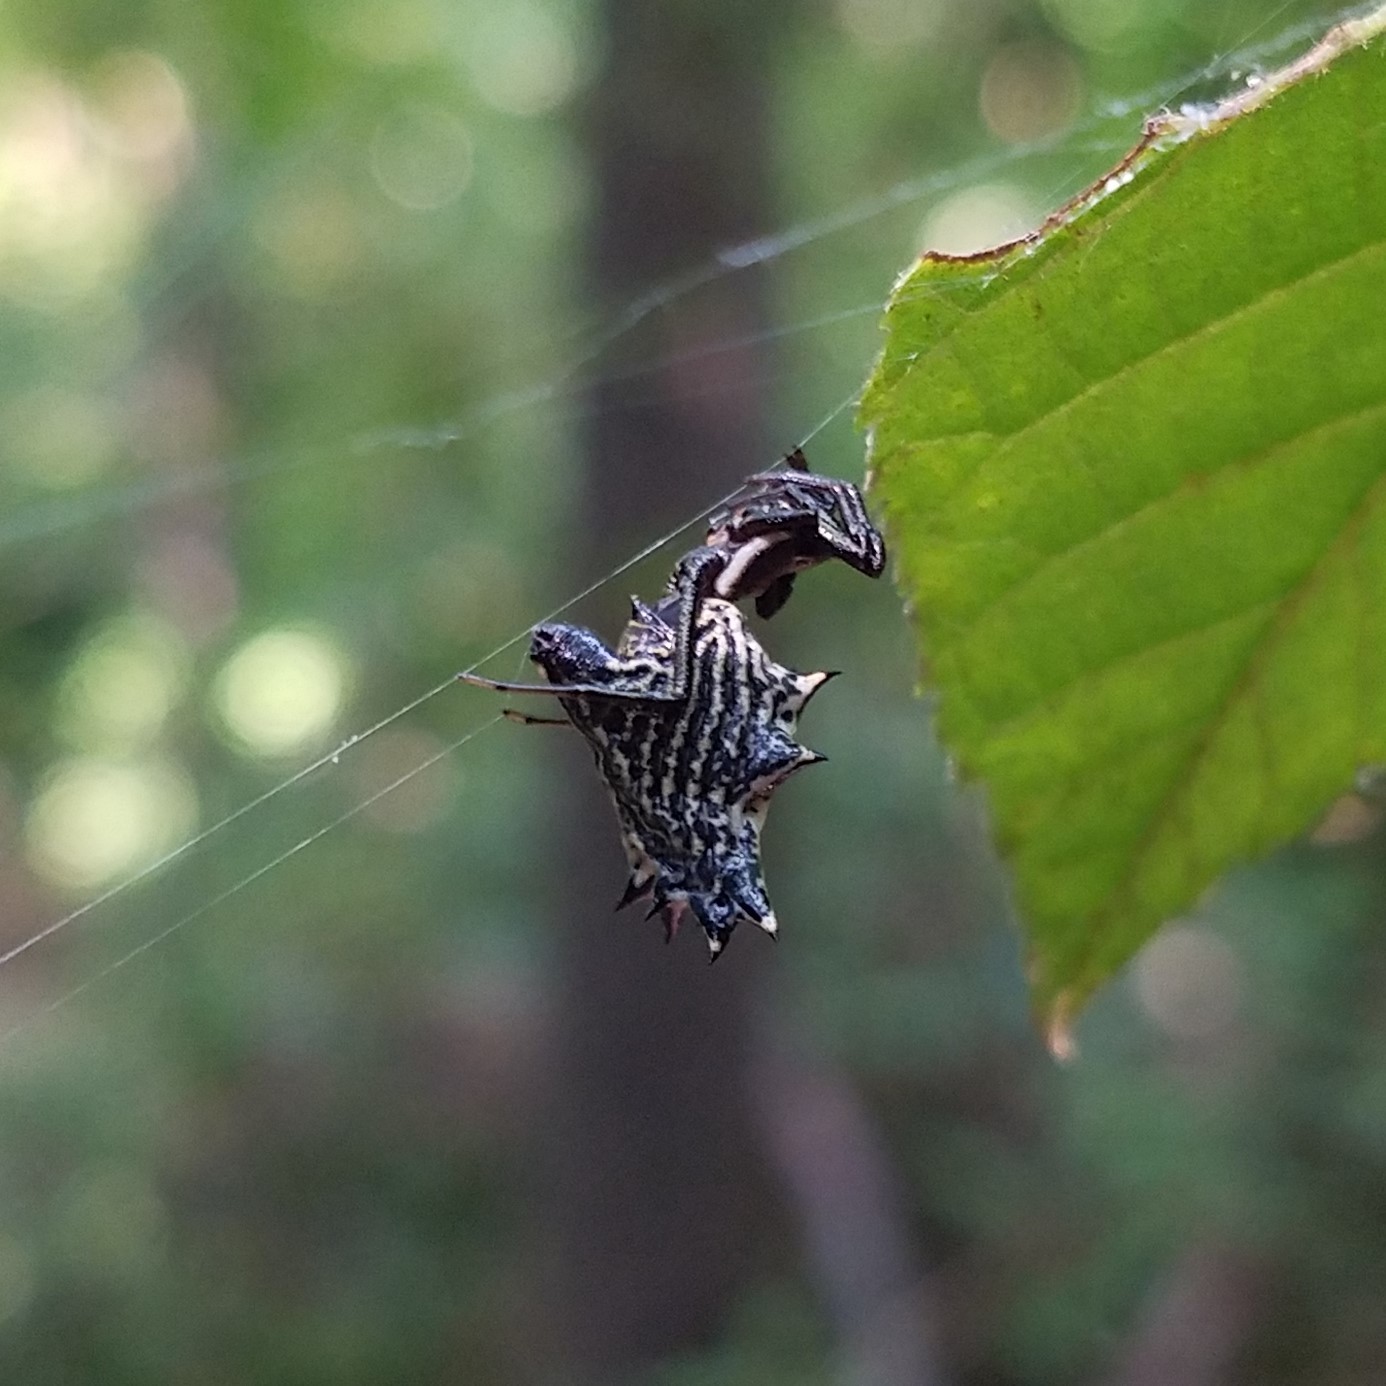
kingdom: Animalia
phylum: Arthropoda
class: Arachnida
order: Araneae
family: Araneidae
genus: Micrathena
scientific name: Micrathena gracilis
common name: Orb weavers
